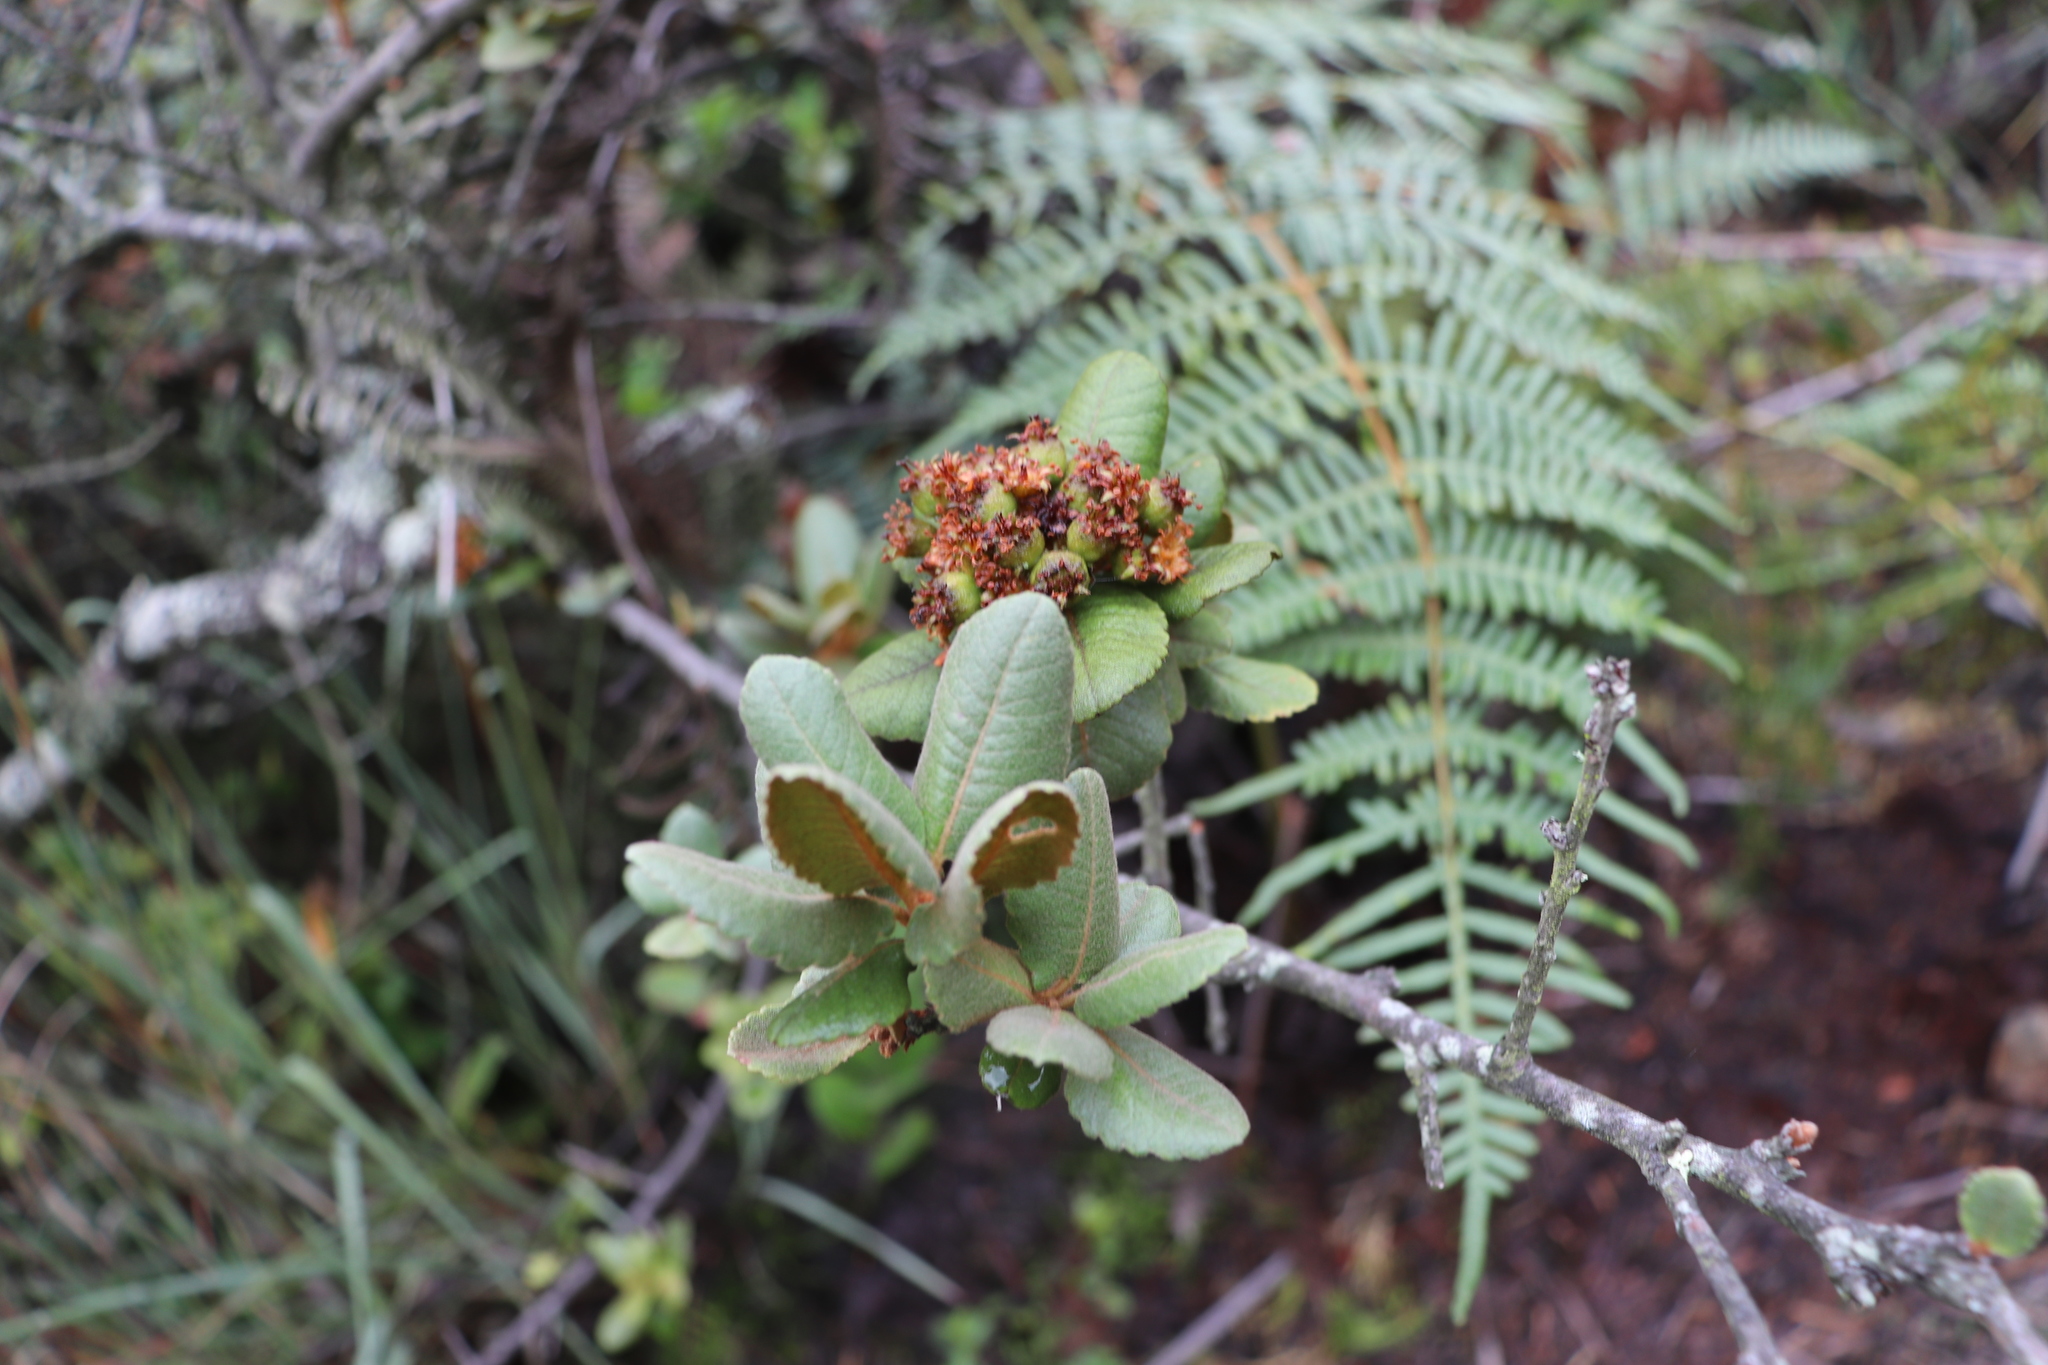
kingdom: Plantae
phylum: Tracheophyta
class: Magnoliopsida
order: Rosales
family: Rosaceae
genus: Hesperomeles
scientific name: Hesperomeles goudotiana
